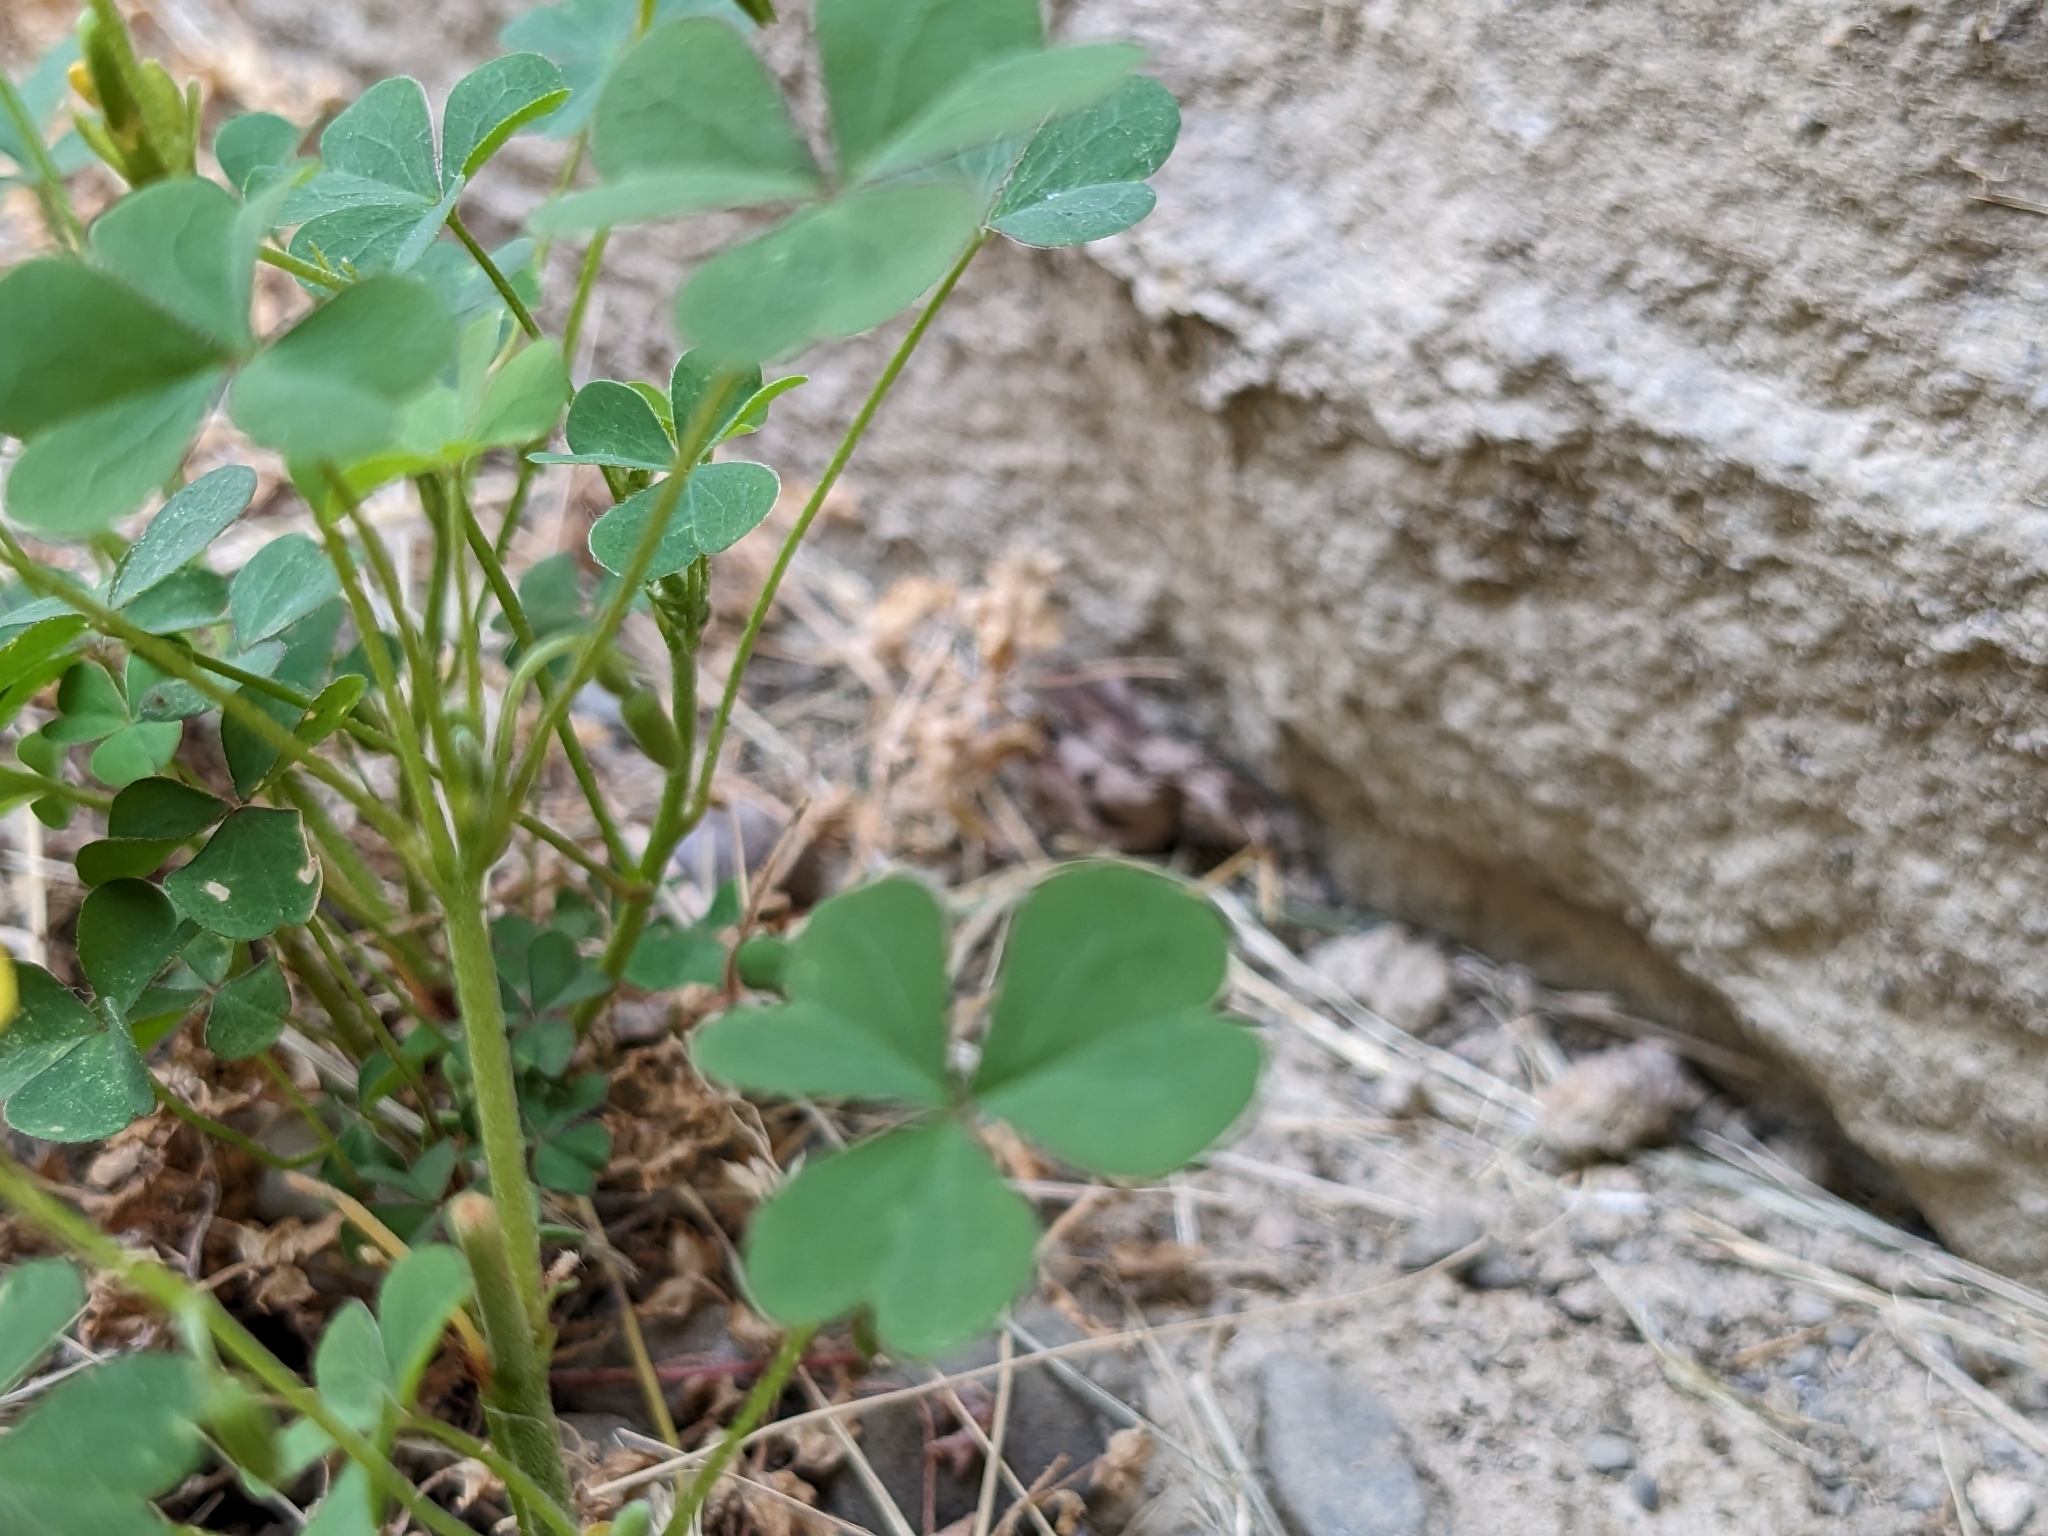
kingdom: Plantae
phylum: Tracheophyta
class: Magnoliopsida
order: Oxalidales
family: Oxalidaceae
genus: Oxalis
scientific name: Oxalis dillenii
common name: Sussex yellow-sorrel
